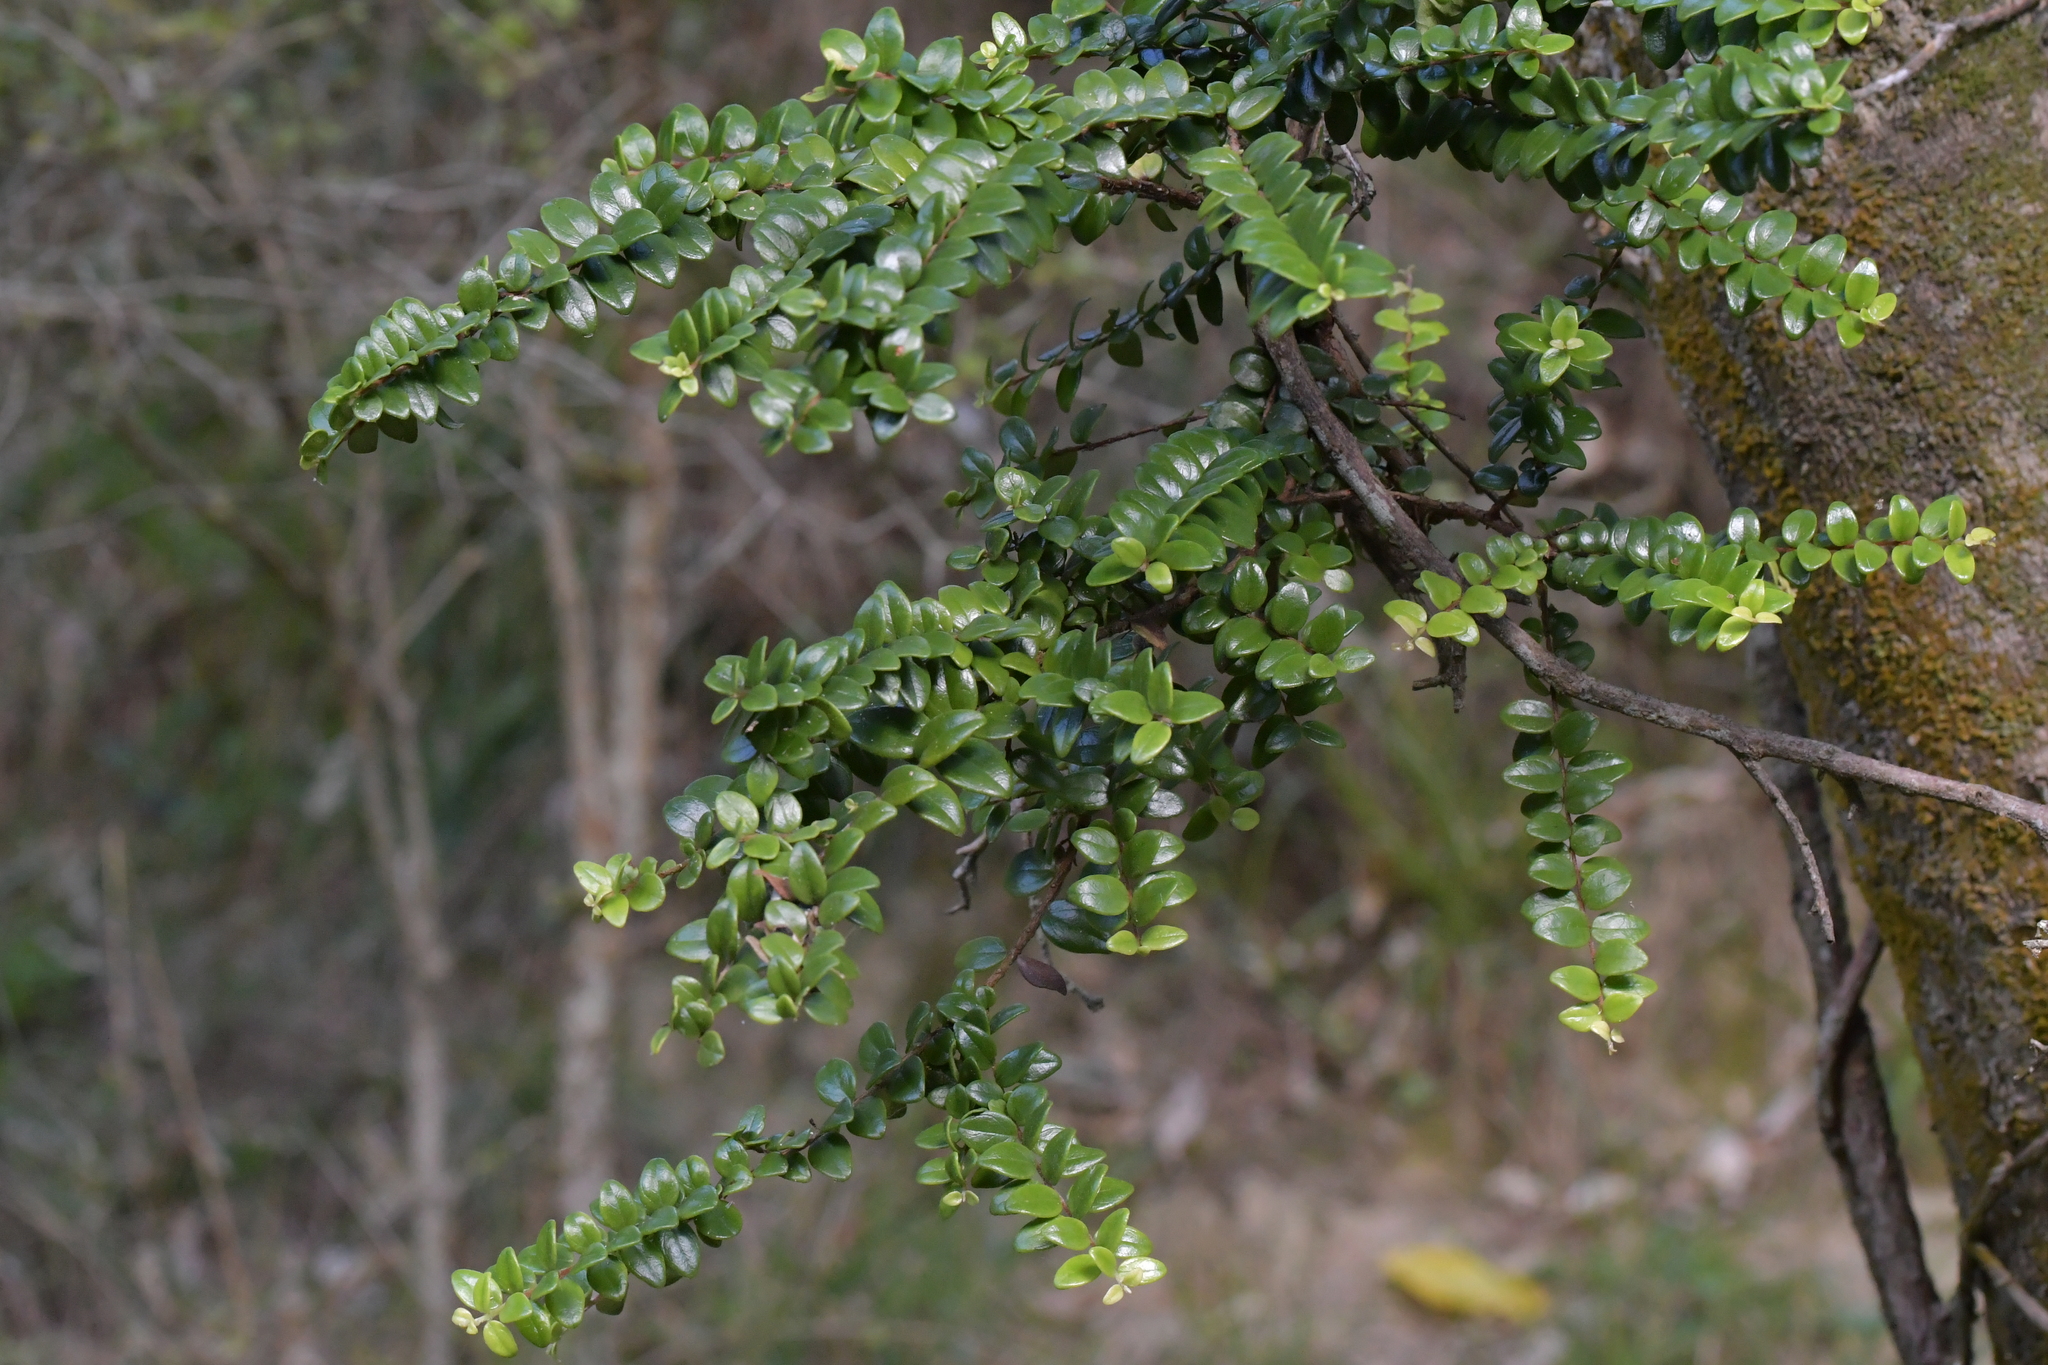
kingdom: Plantae
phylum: Tracheophyta
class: Magnoliopsida
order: Myrtales
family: Myrtaceae
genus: Metrosideros
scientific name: Metrosideros perforata
